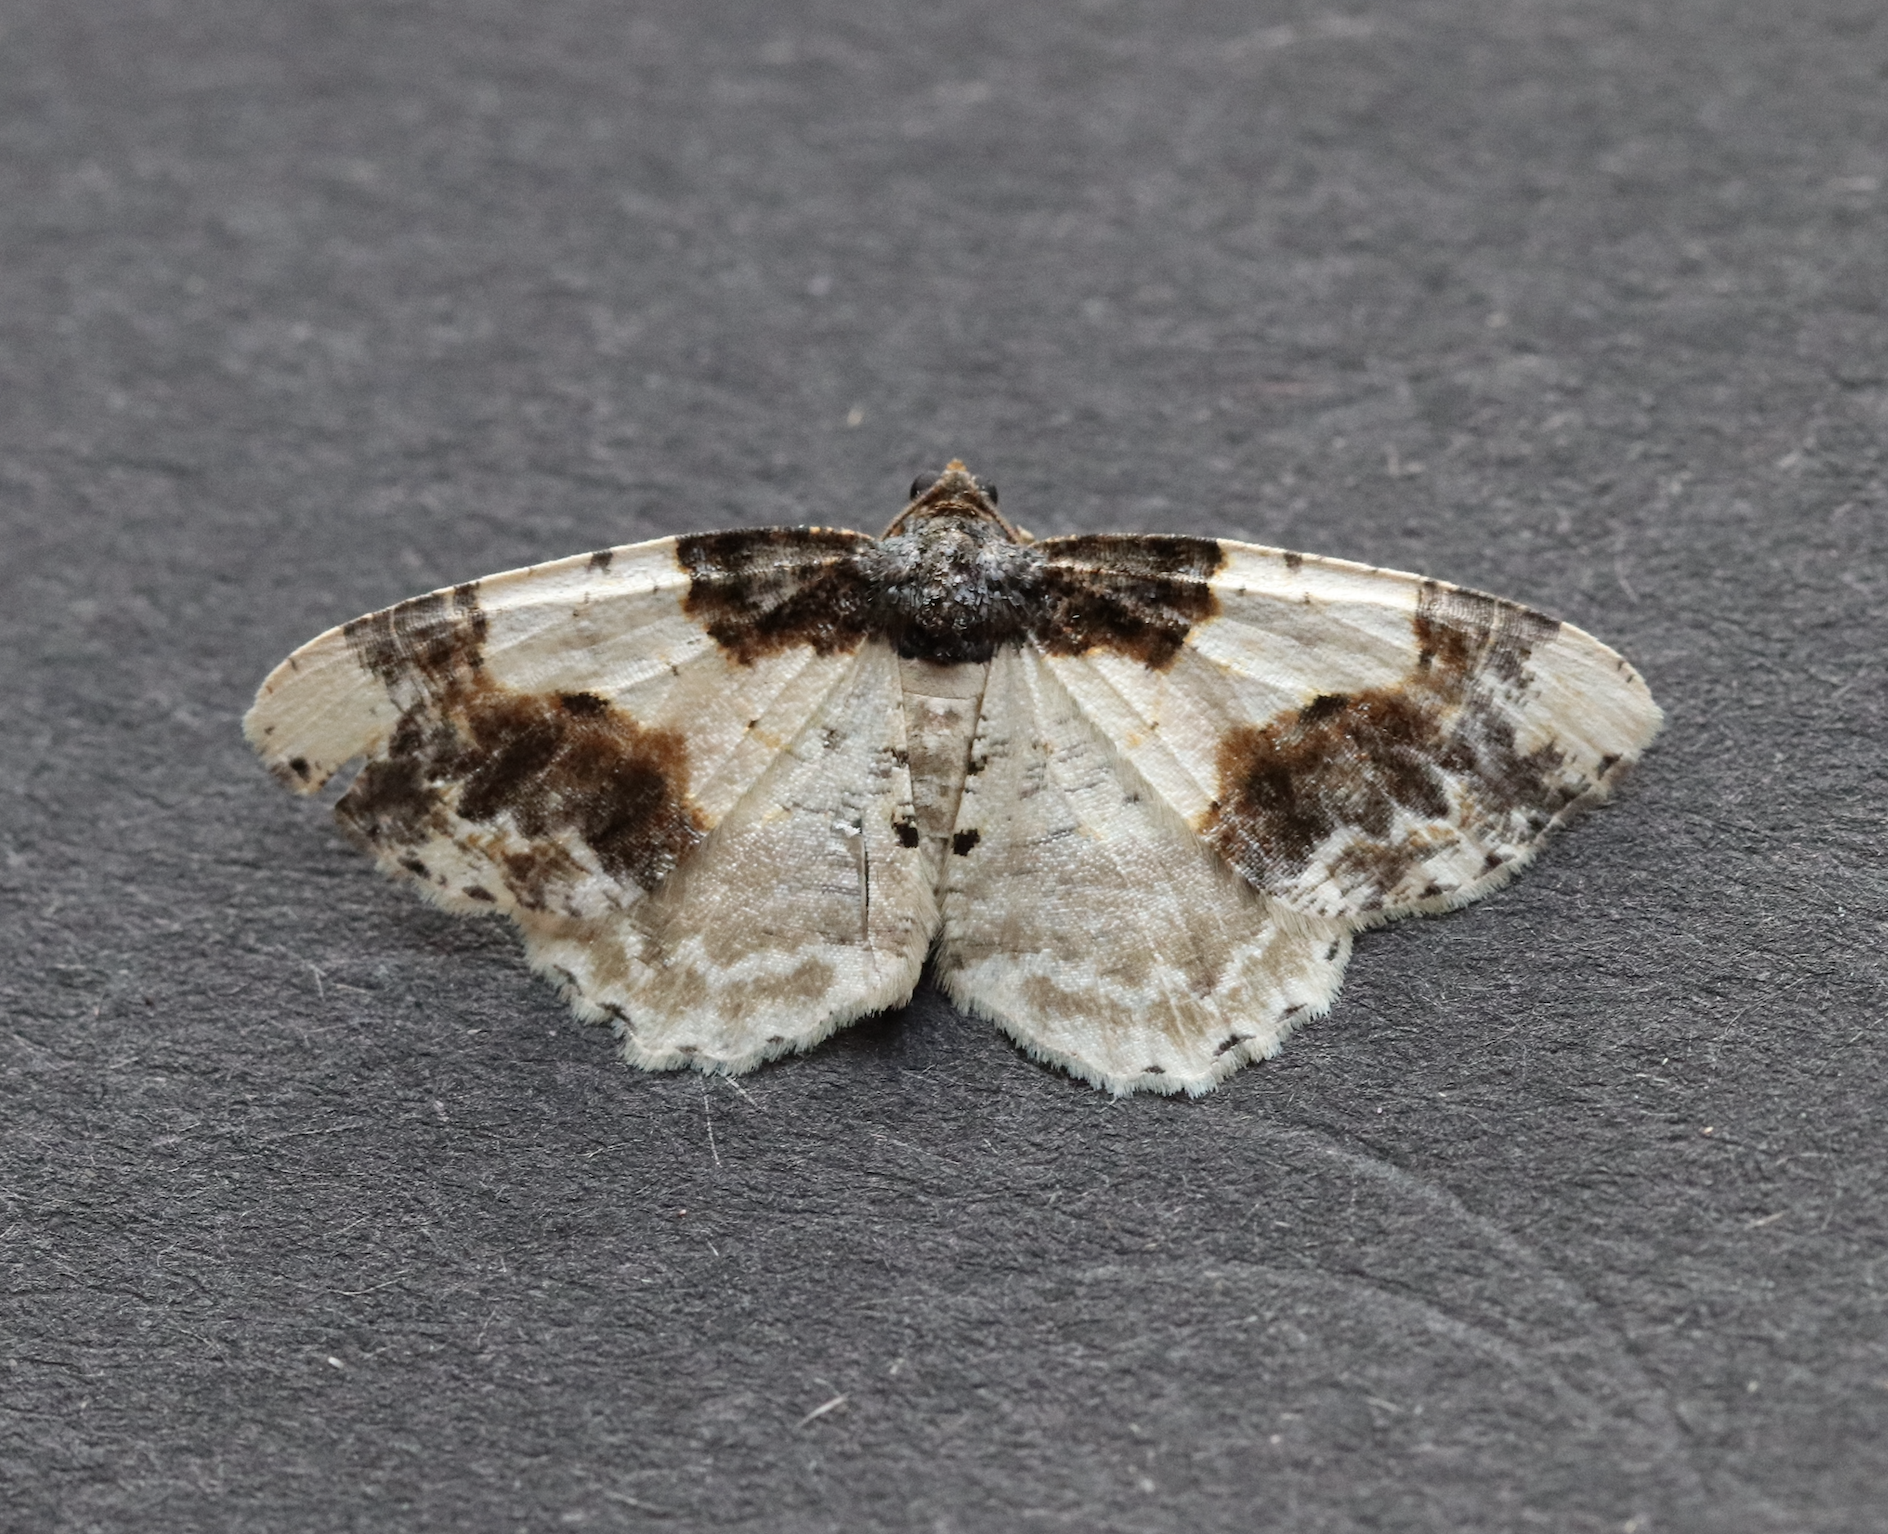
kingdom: Animalia
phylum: Arthropoda
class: Insecta
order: Lepidoptera
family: Geometridae
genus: Ligdia
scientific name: Ligdia adustata
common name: Scorched carpet
